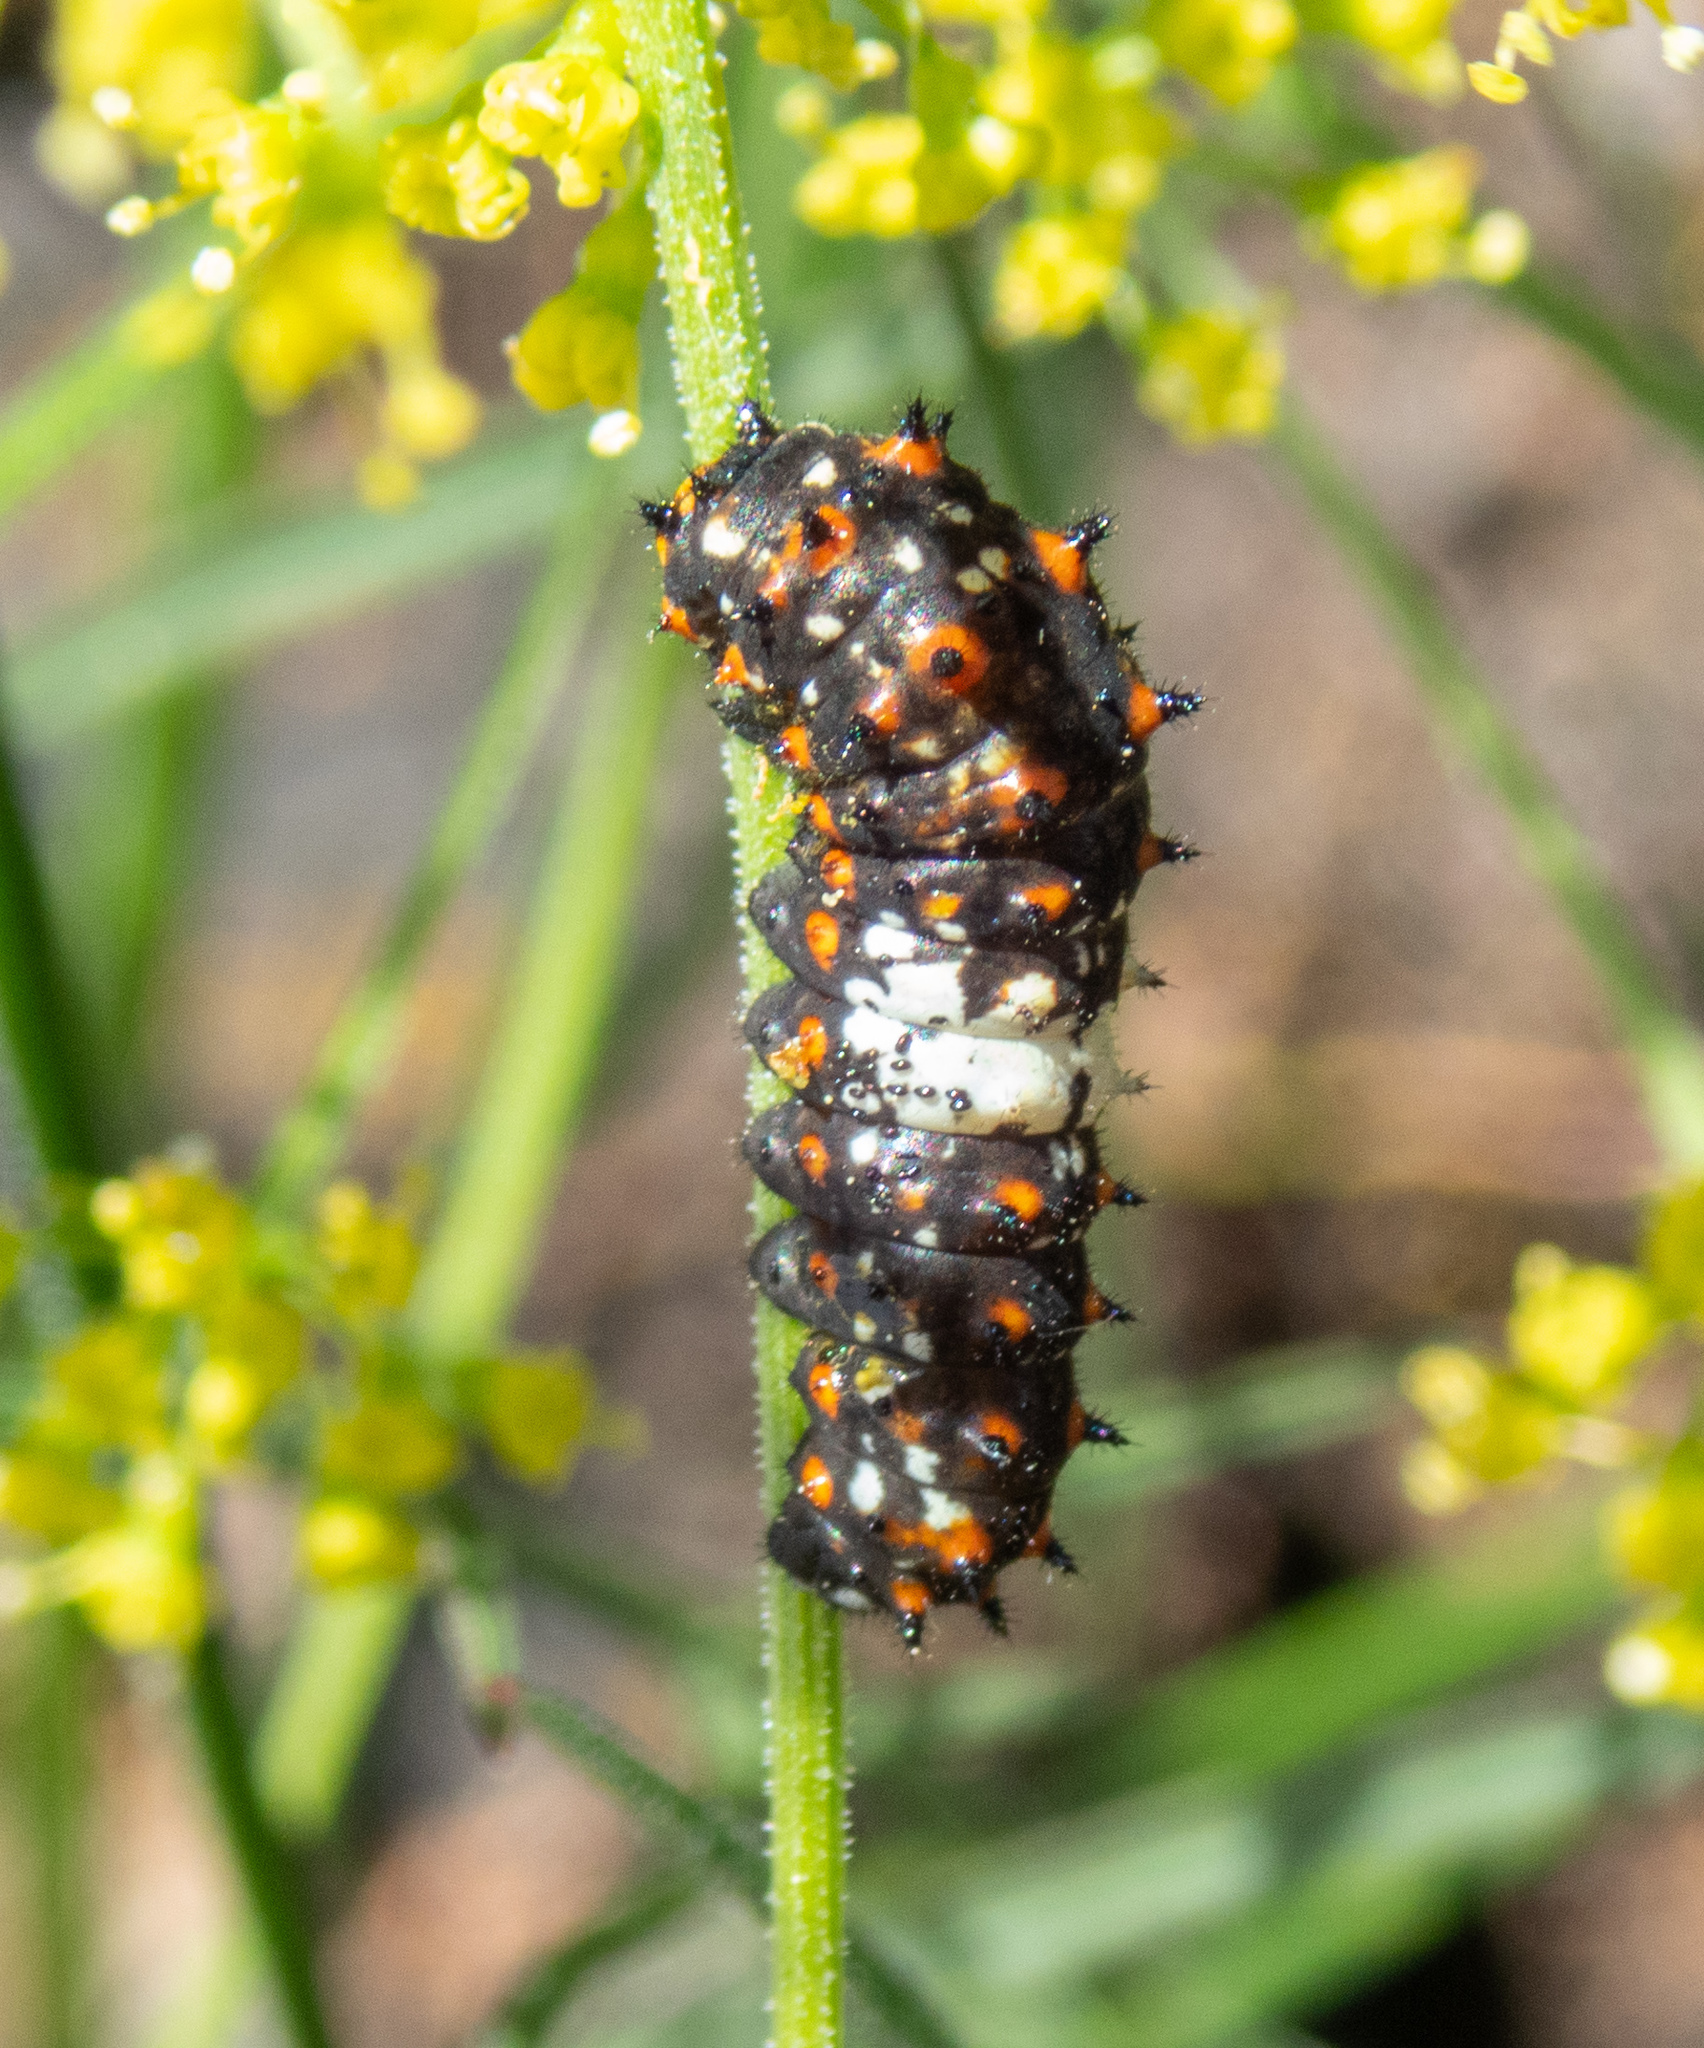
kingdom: Animalia
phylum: Arthropoda
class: Insecta
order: Lepidoptera
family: Papilionidae
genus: Papilio
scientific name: Papilio zelicaon
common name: Anise swallowtail
